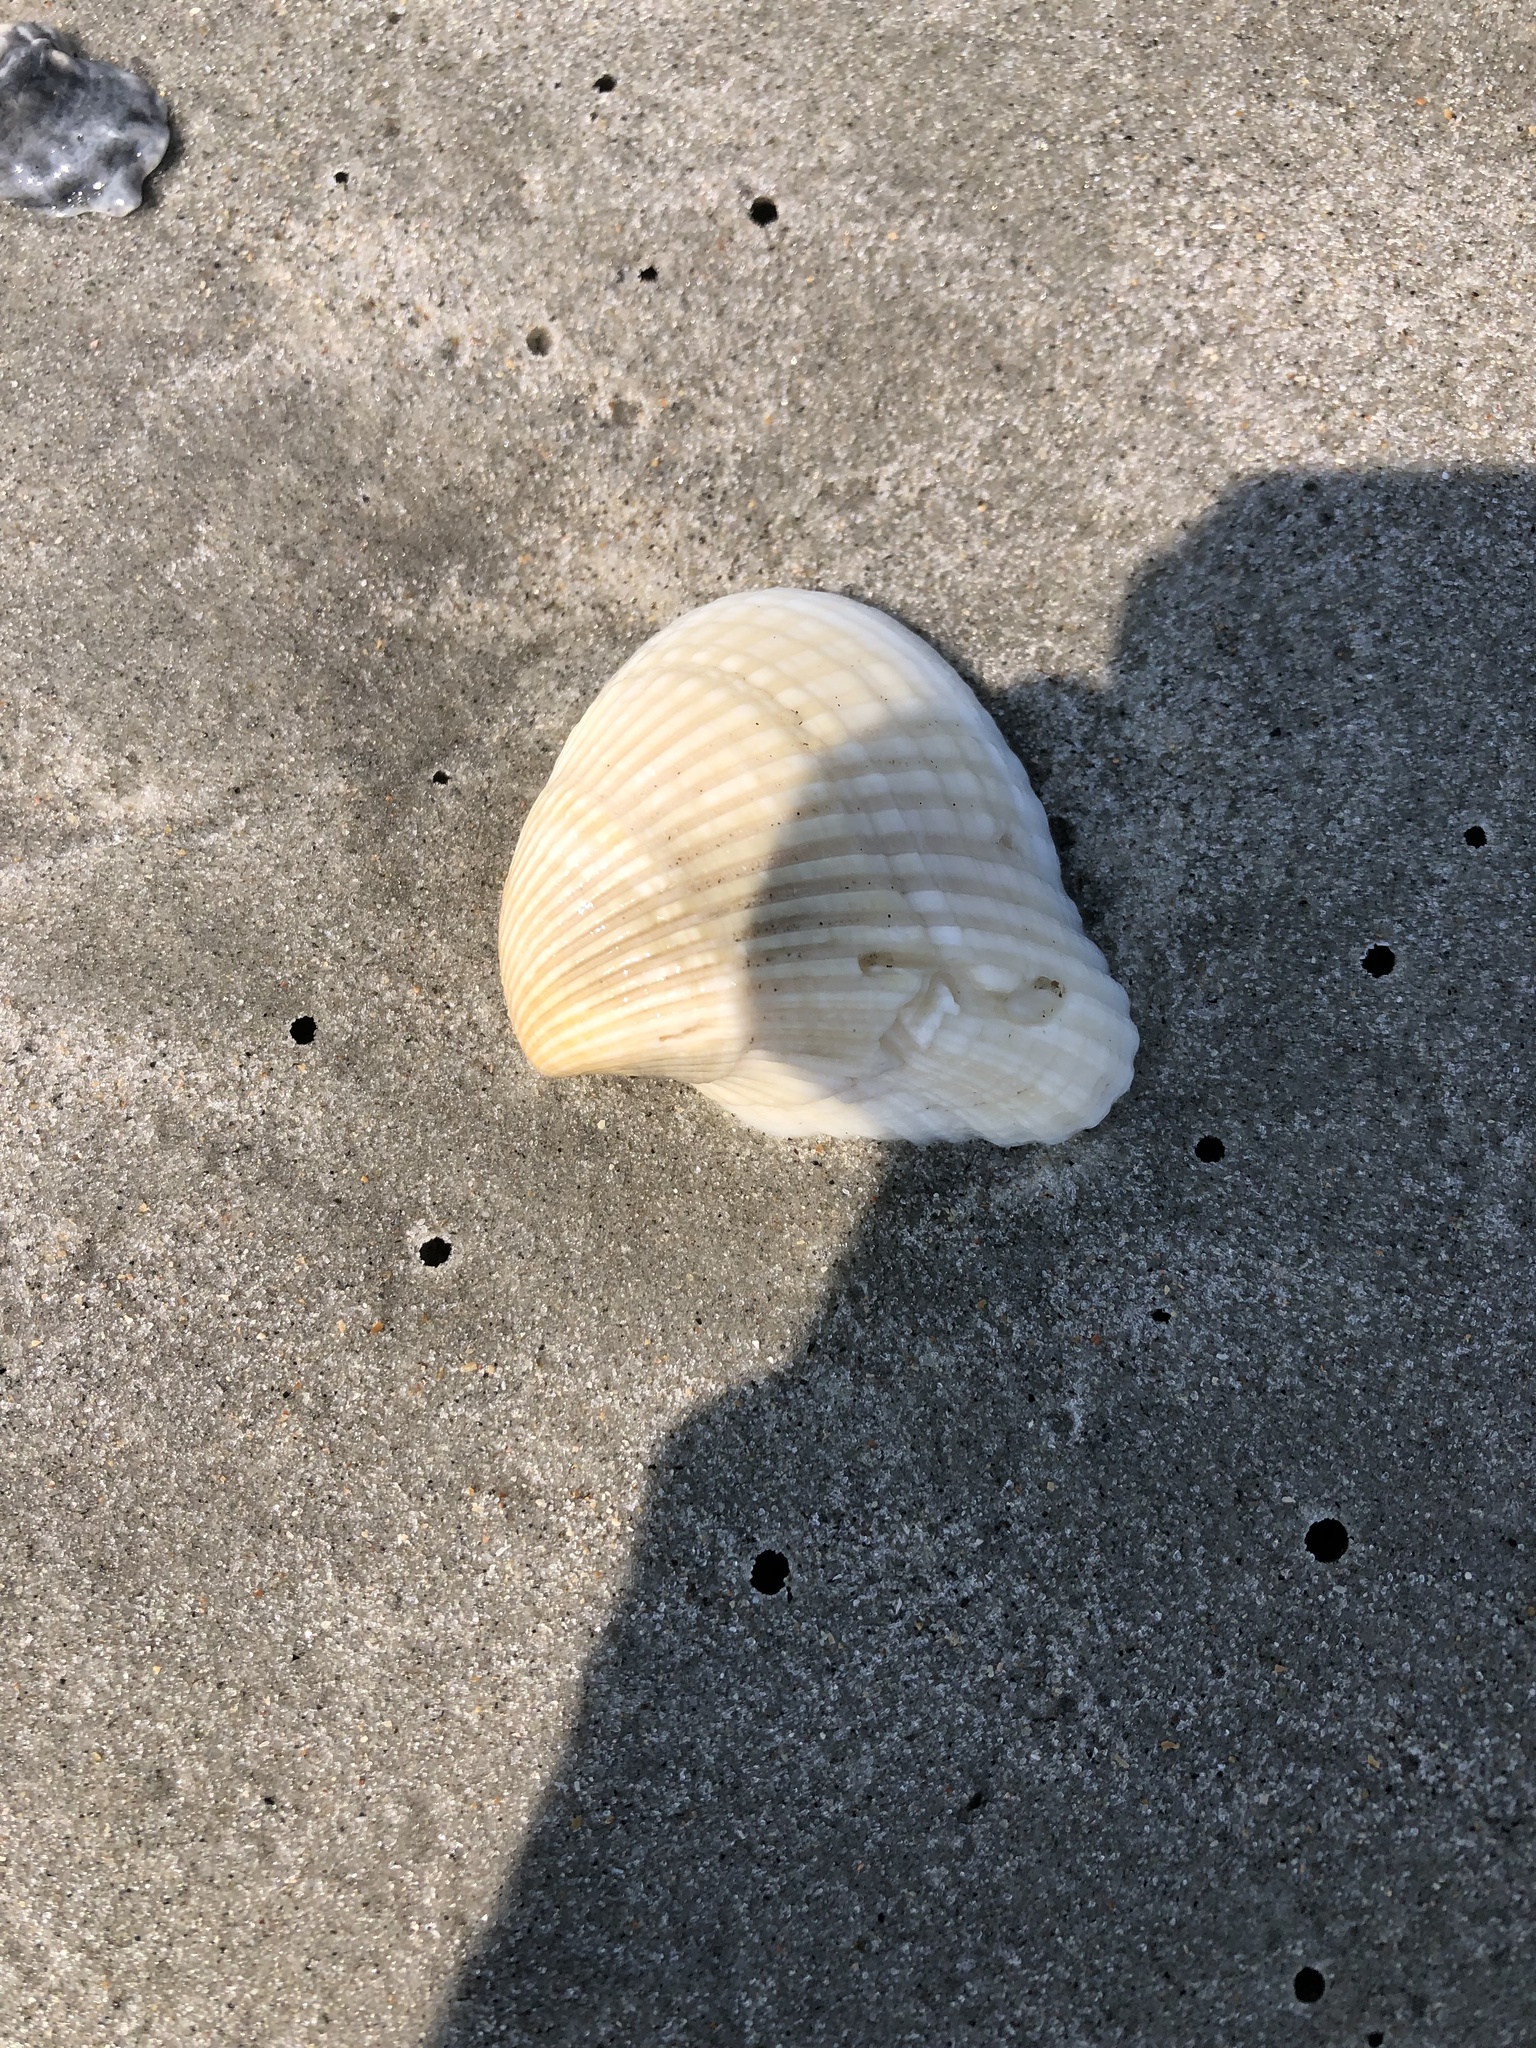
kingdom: Animalia
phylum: Mollusca
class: Bivalvia
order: Arcida
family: Noetiidae
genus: Noetia
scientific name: Noetia ponderosa
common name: Ponderous ark
